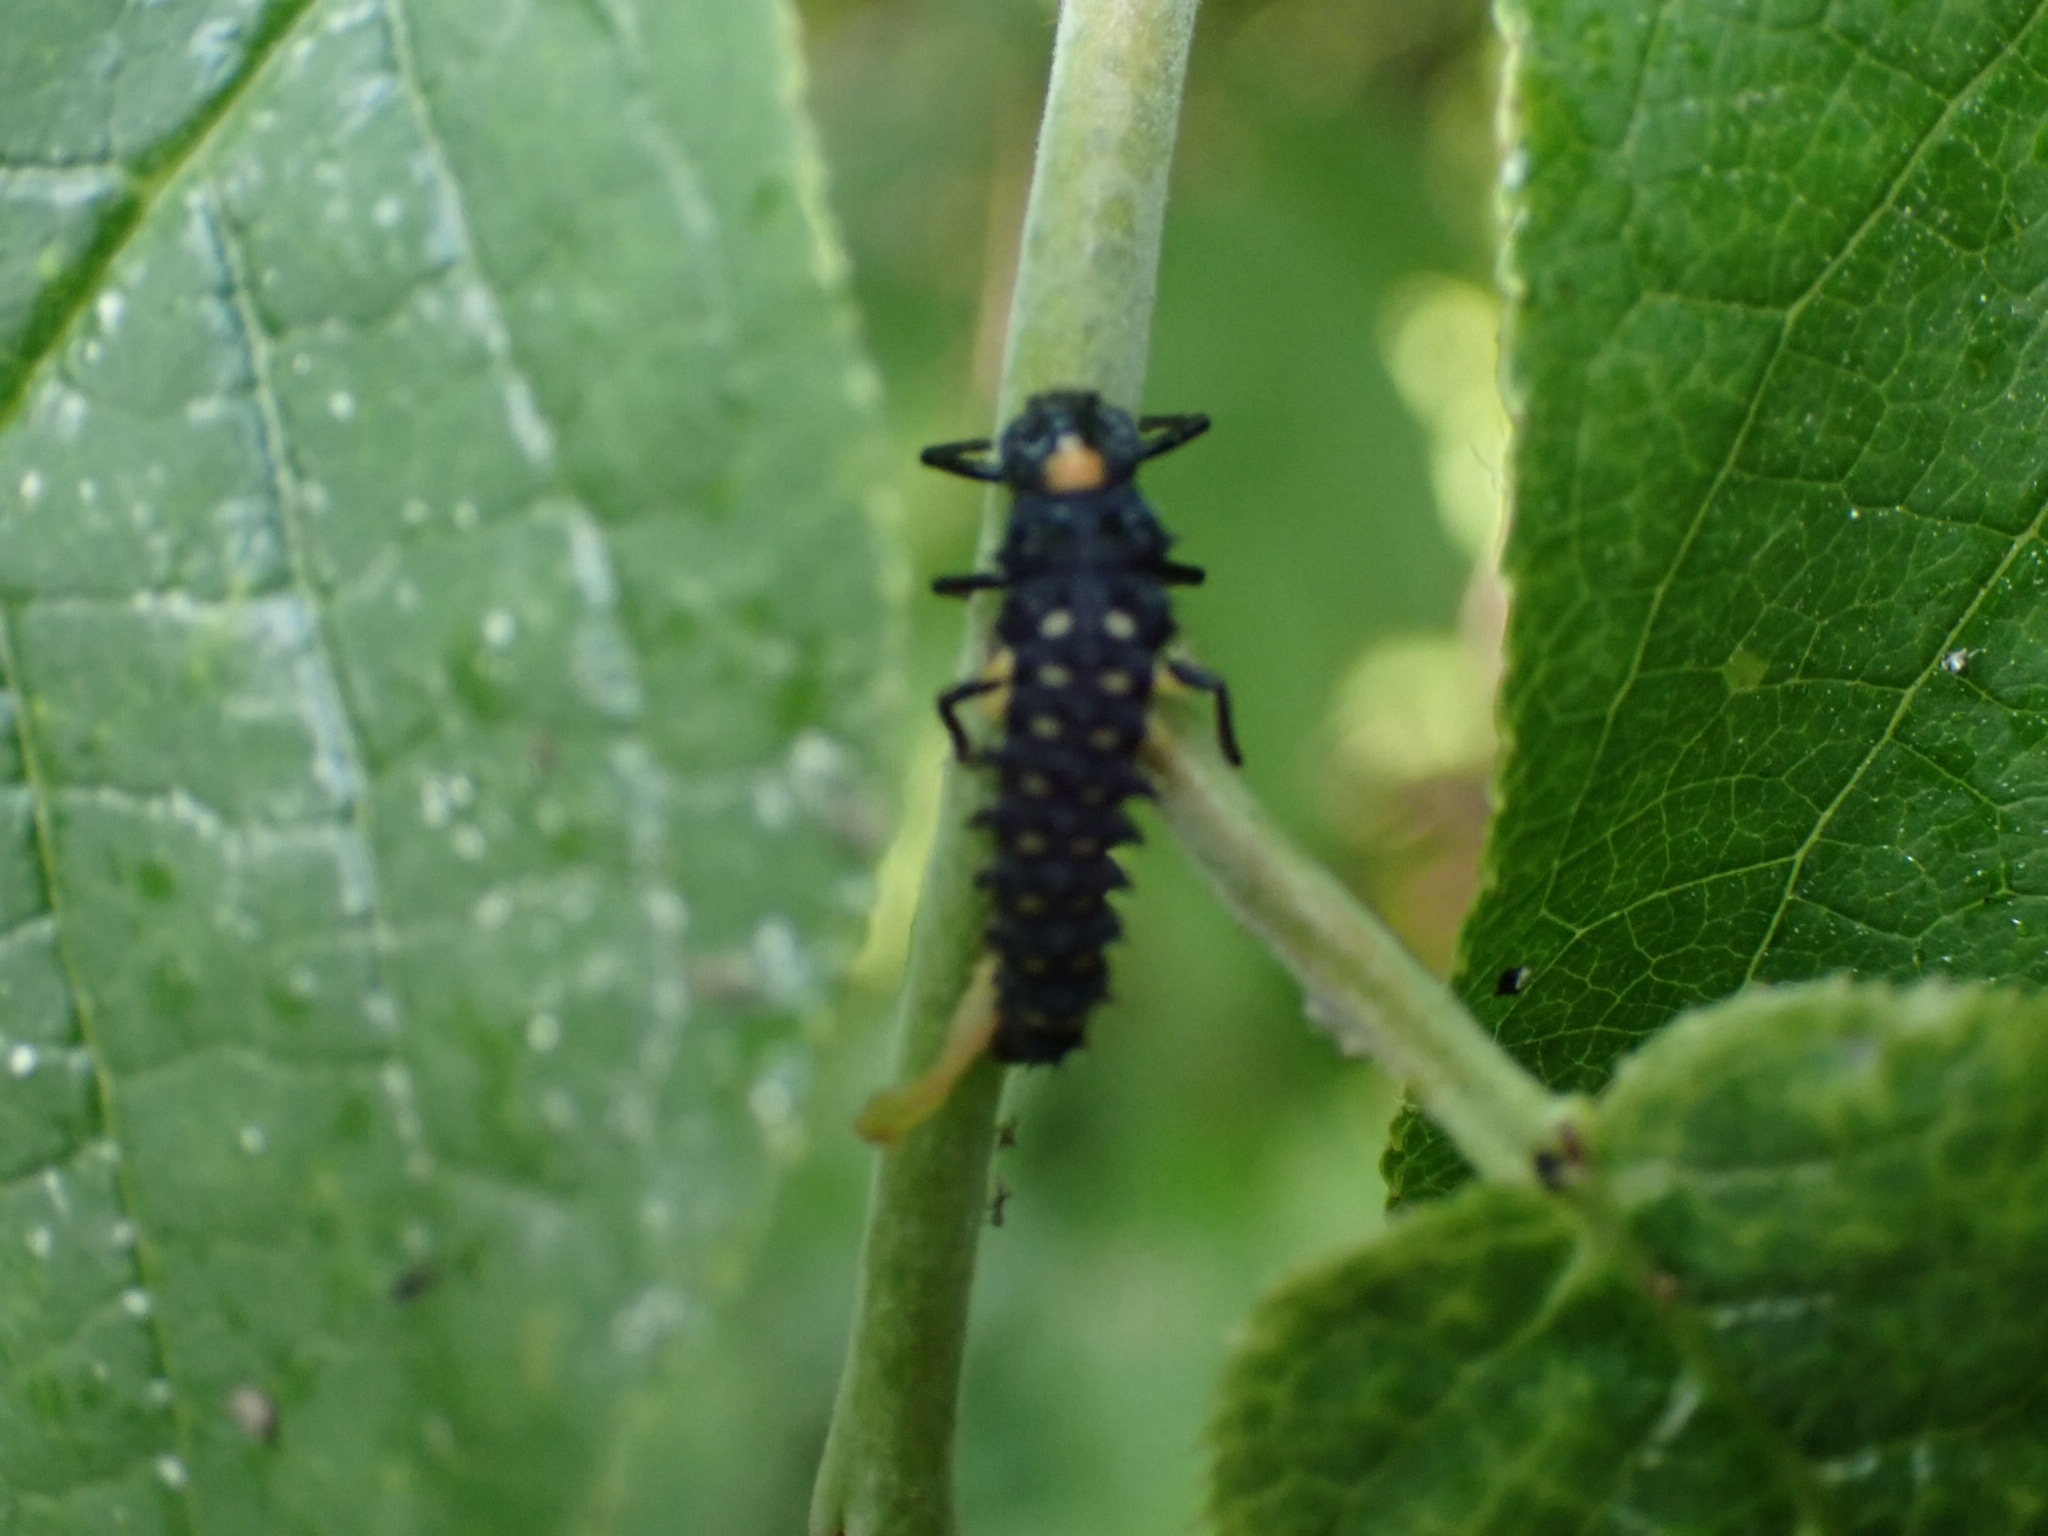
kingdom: Animalia
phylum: Arthropoda
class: Insecta
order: Coleoptera
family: Coccinellidae
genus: Anatis
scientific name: Anatis ocellata
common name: Eyed ladybird
